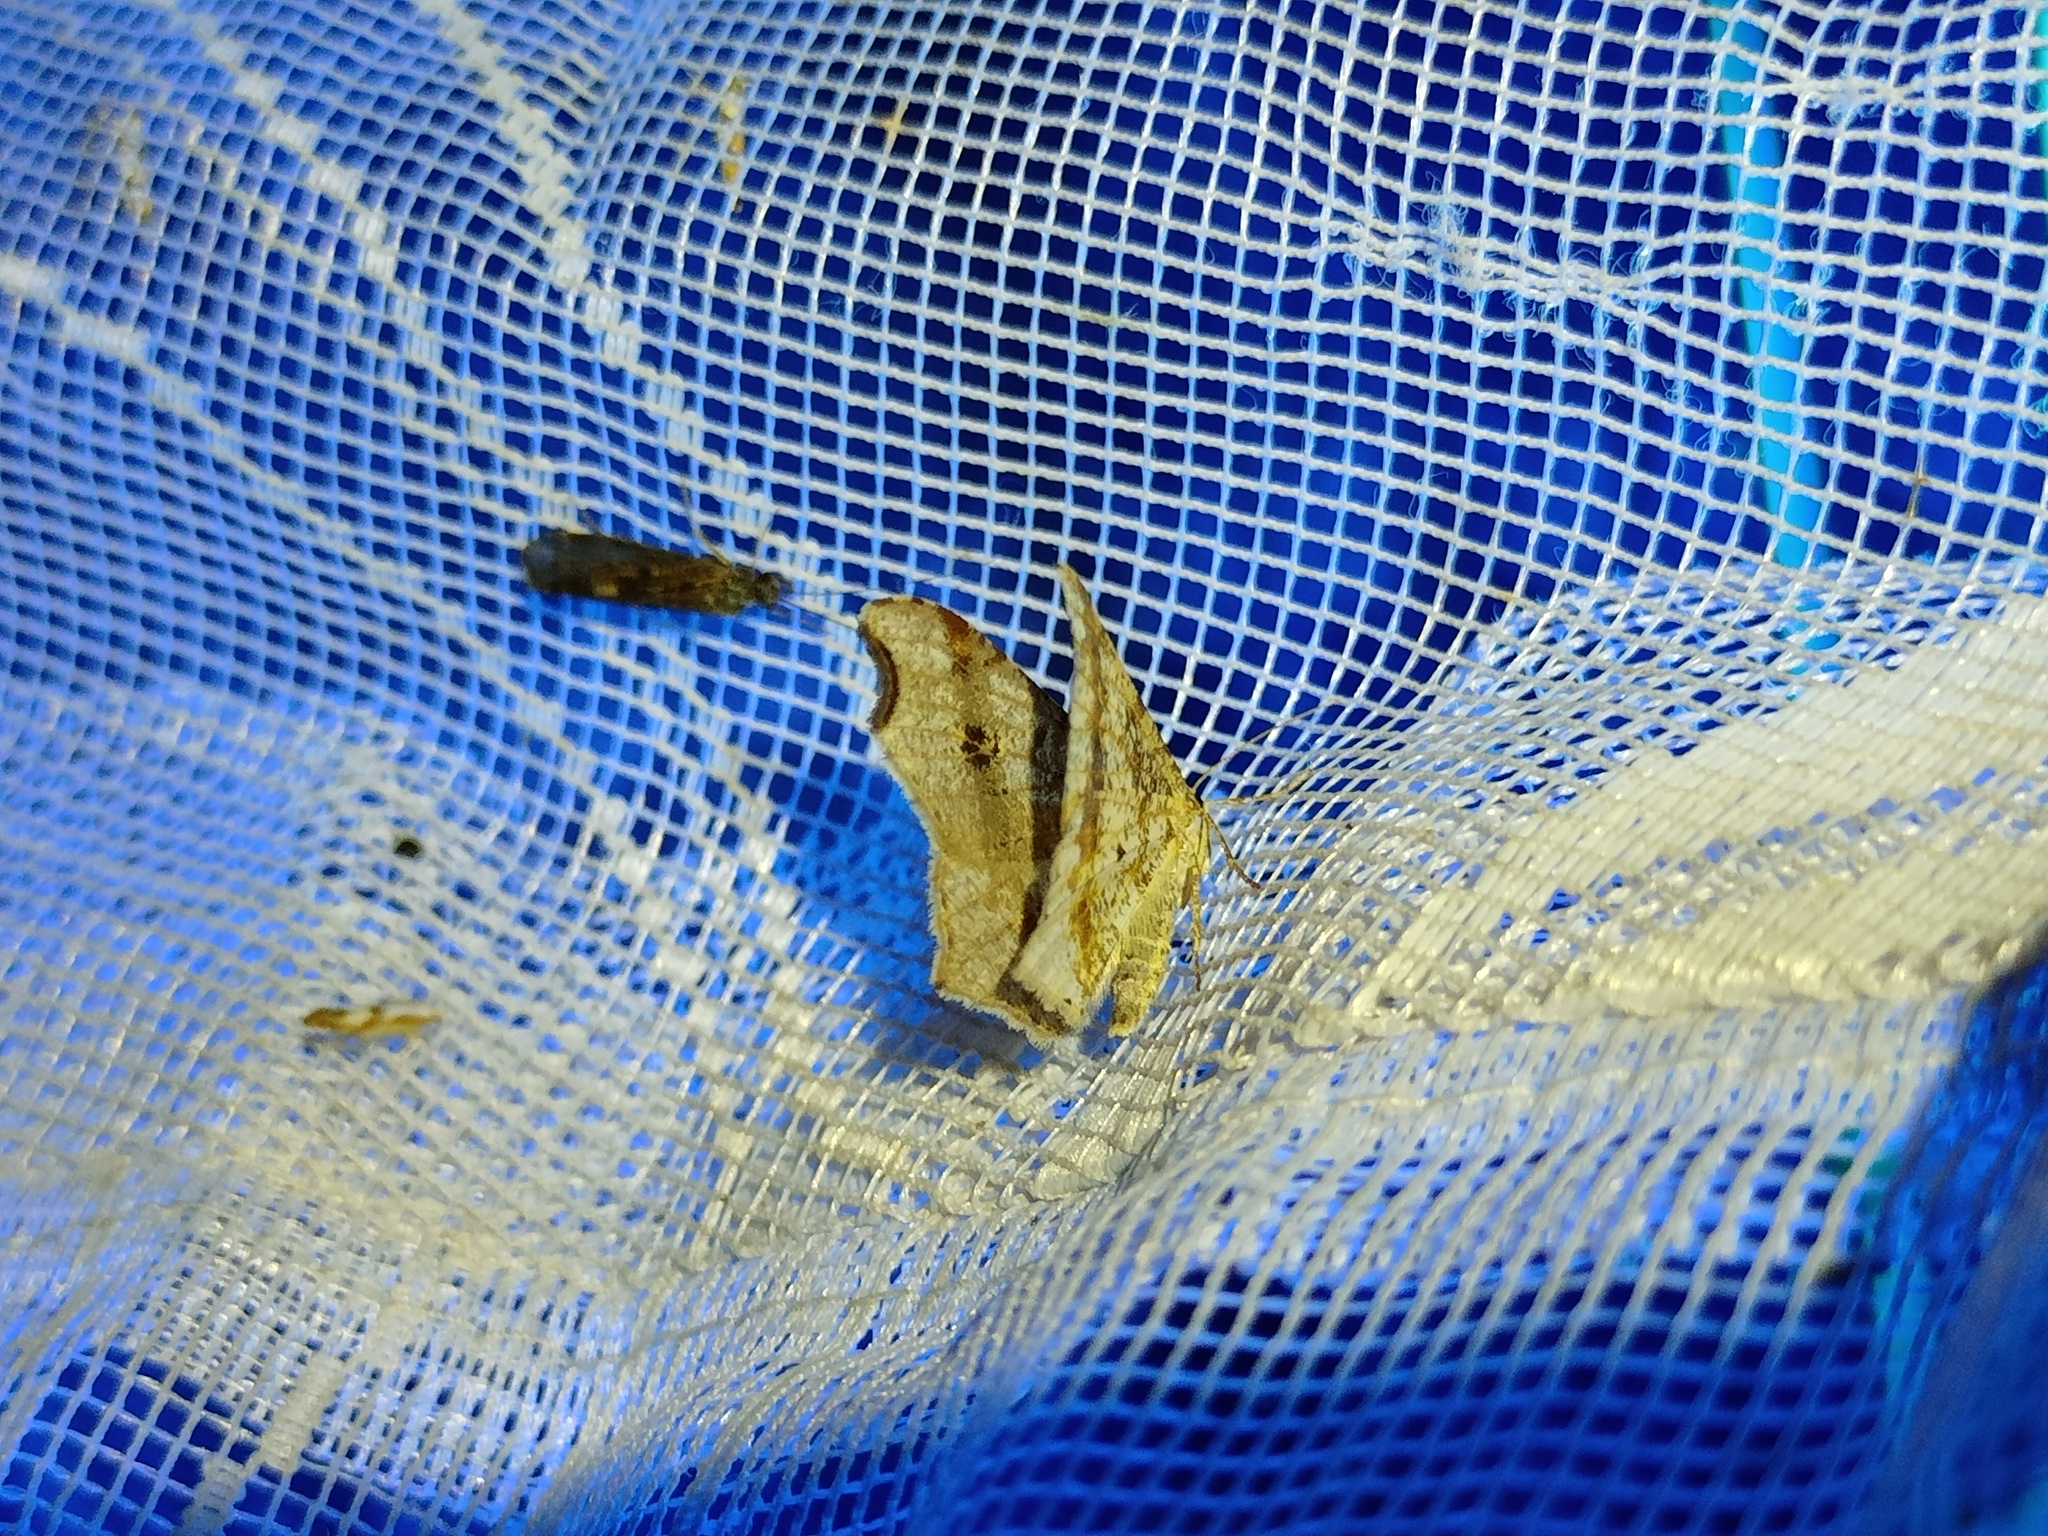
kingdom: Animalia
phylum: Arthropoda
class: Insecta
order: Lepidoptera
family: Geometridae
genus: Macaria
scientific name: Macaria alternata
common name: Sharp-angled peacock
